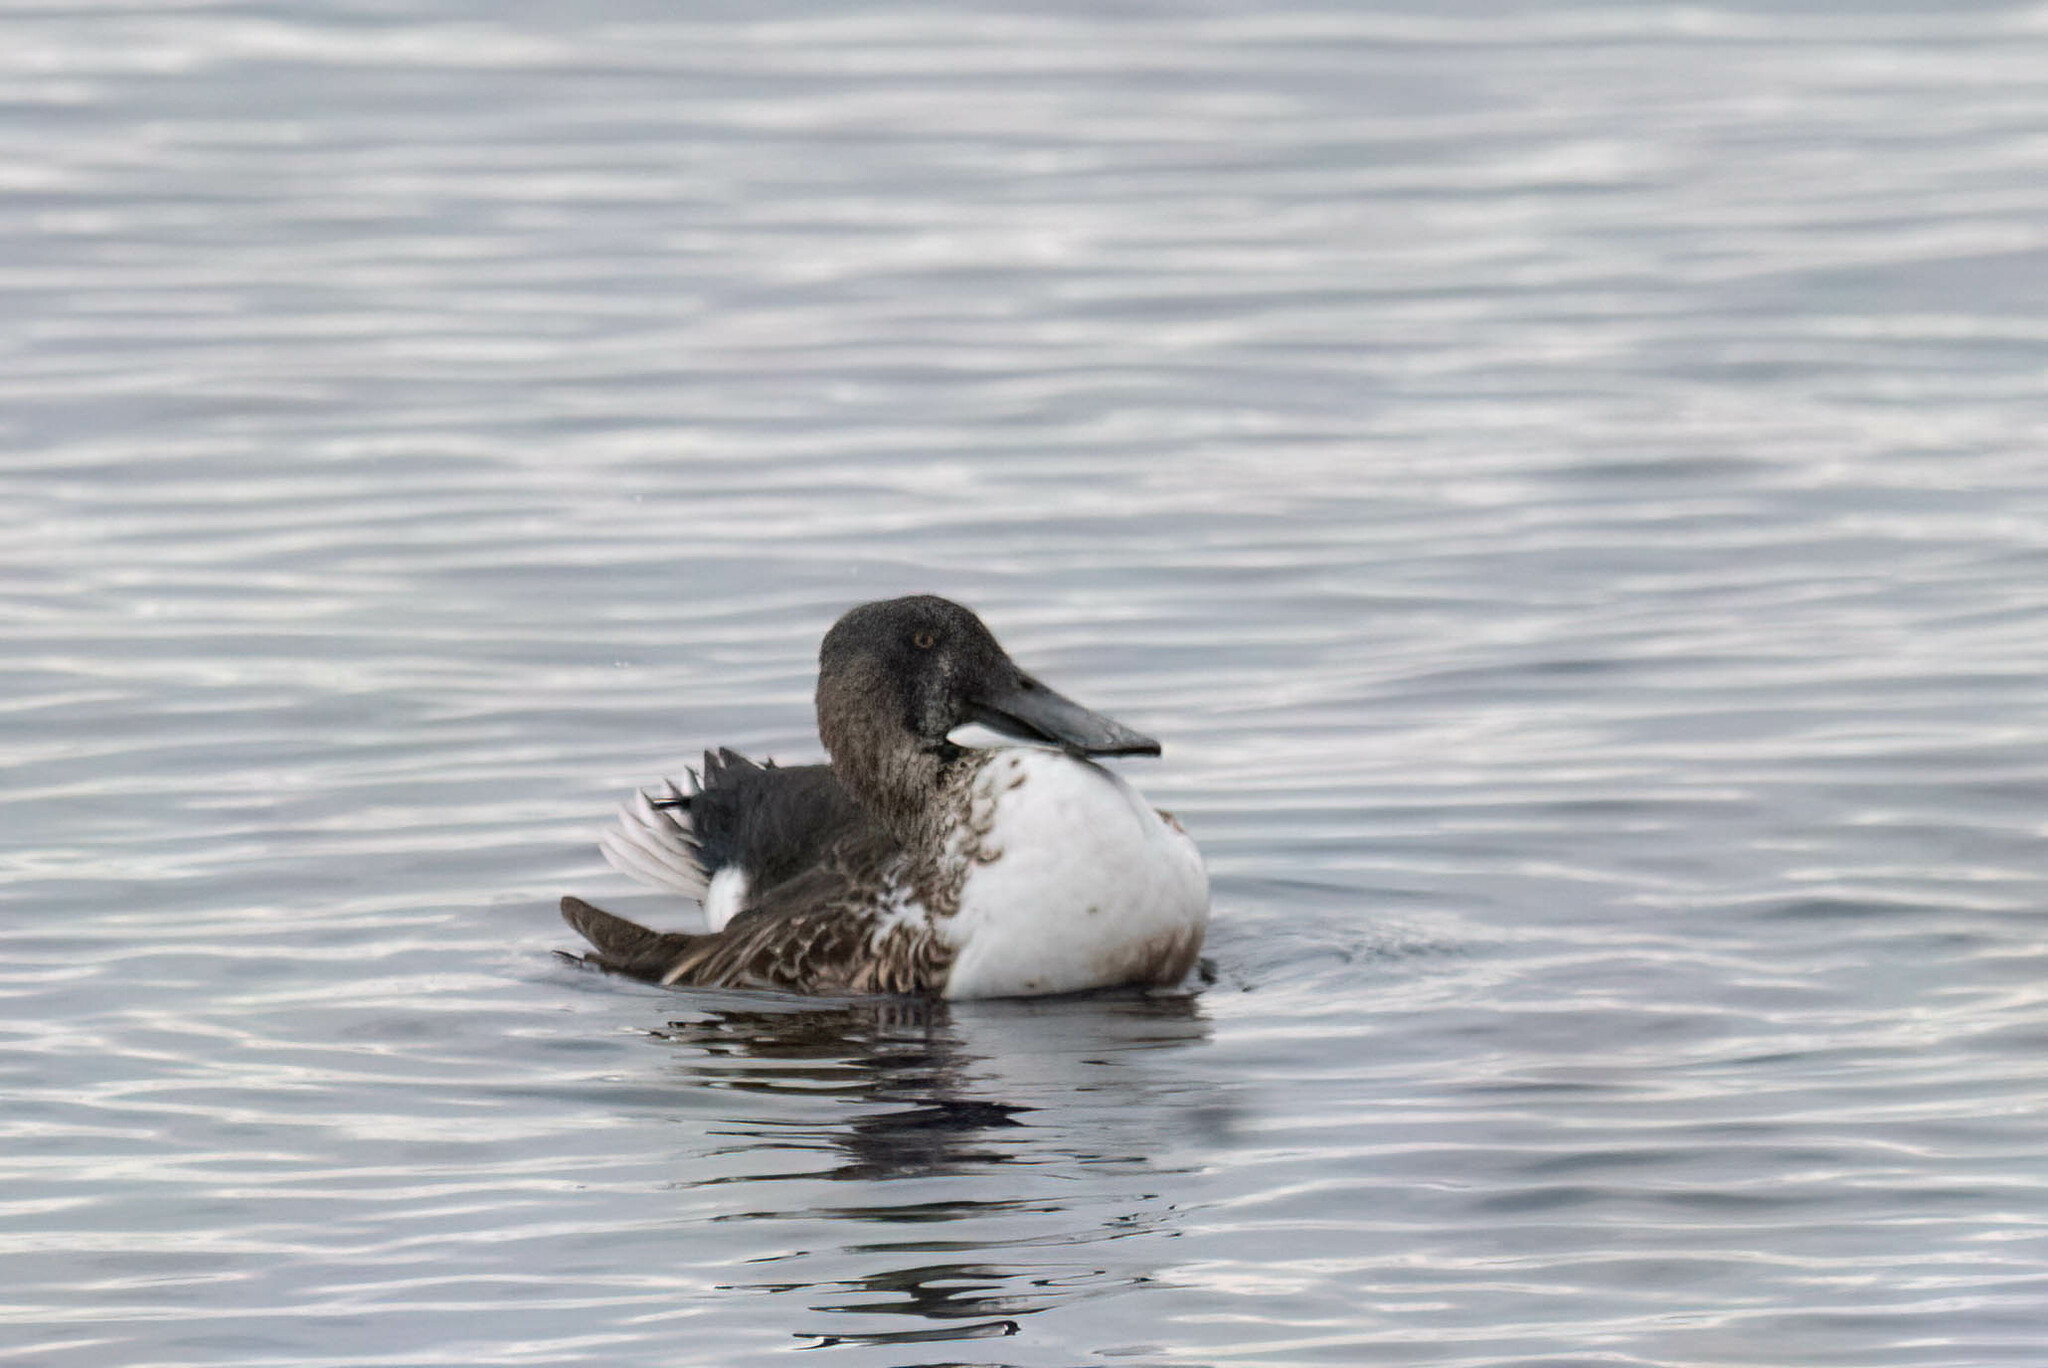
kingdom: Animalia
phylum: Chordata
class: Aves
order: Anseriformes
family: Anatidae
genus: Spatula
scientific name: Spatula clypeata
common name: Northern shoveler
